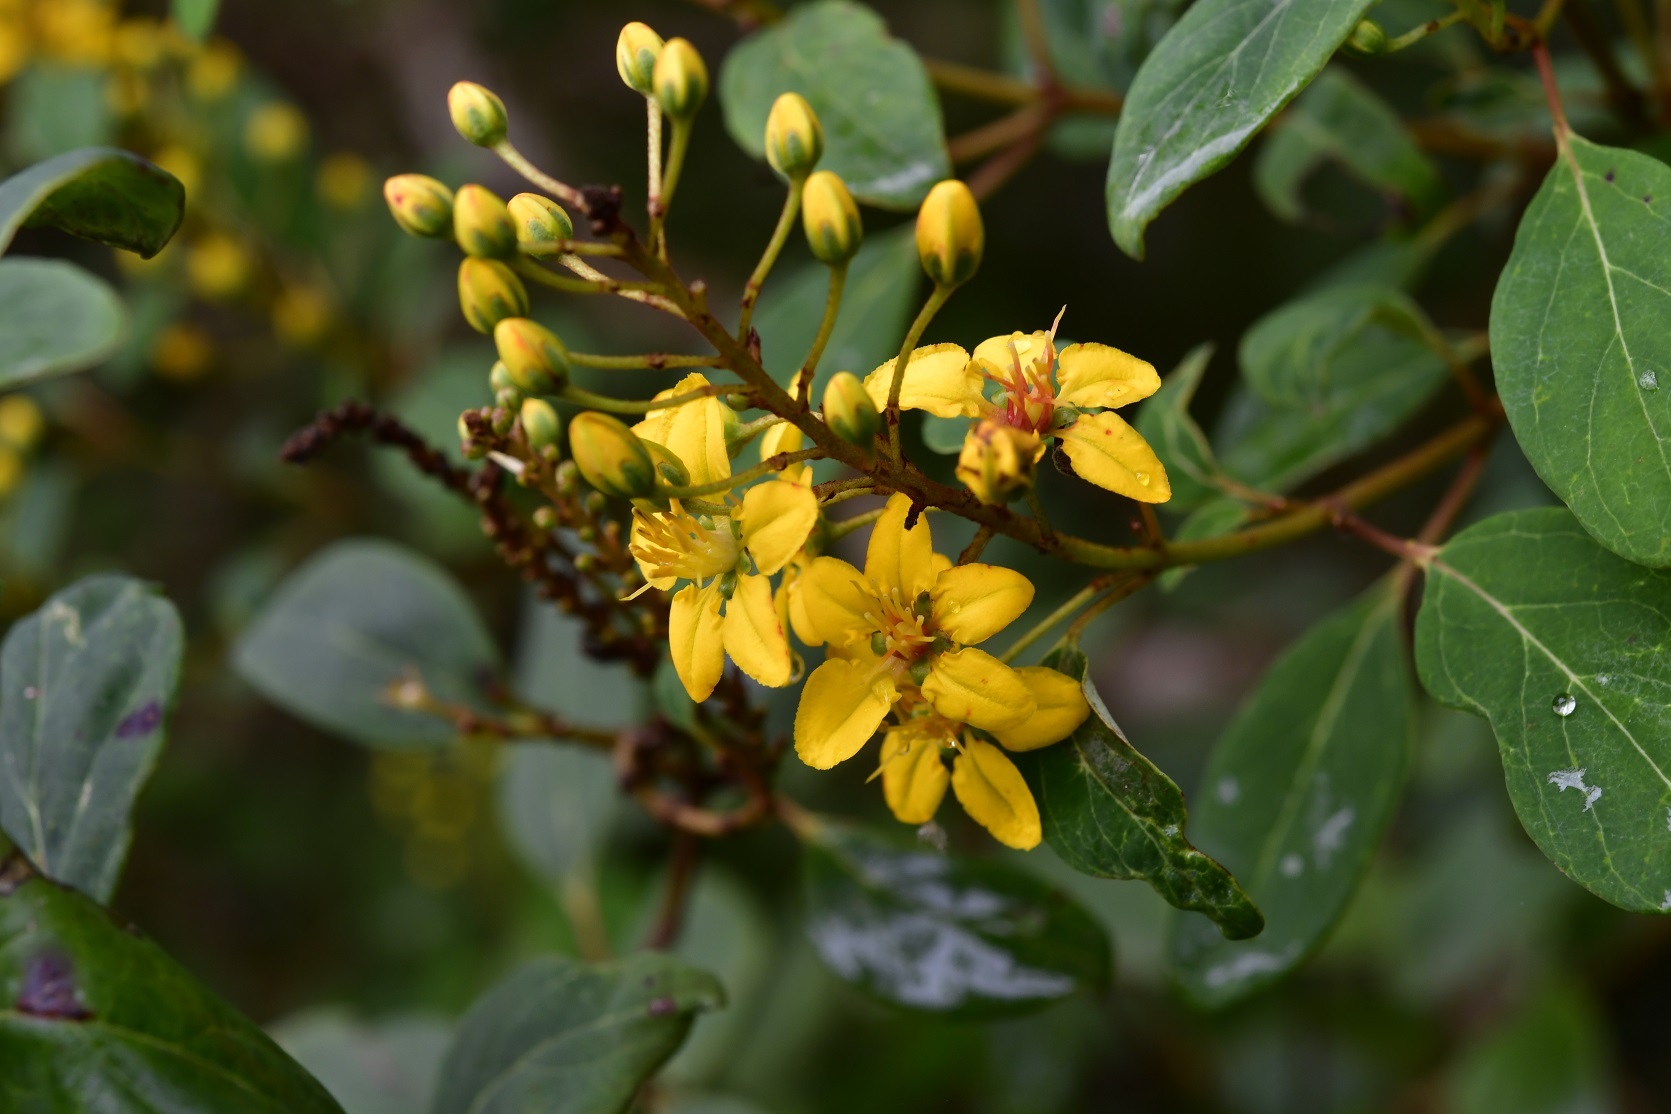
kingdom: Plantae
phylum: Tracheophyta
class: Magnoliopsida
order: Malpighiales
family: Malpighiaceae
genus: Galphimia
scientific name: Galphimia speciosa
